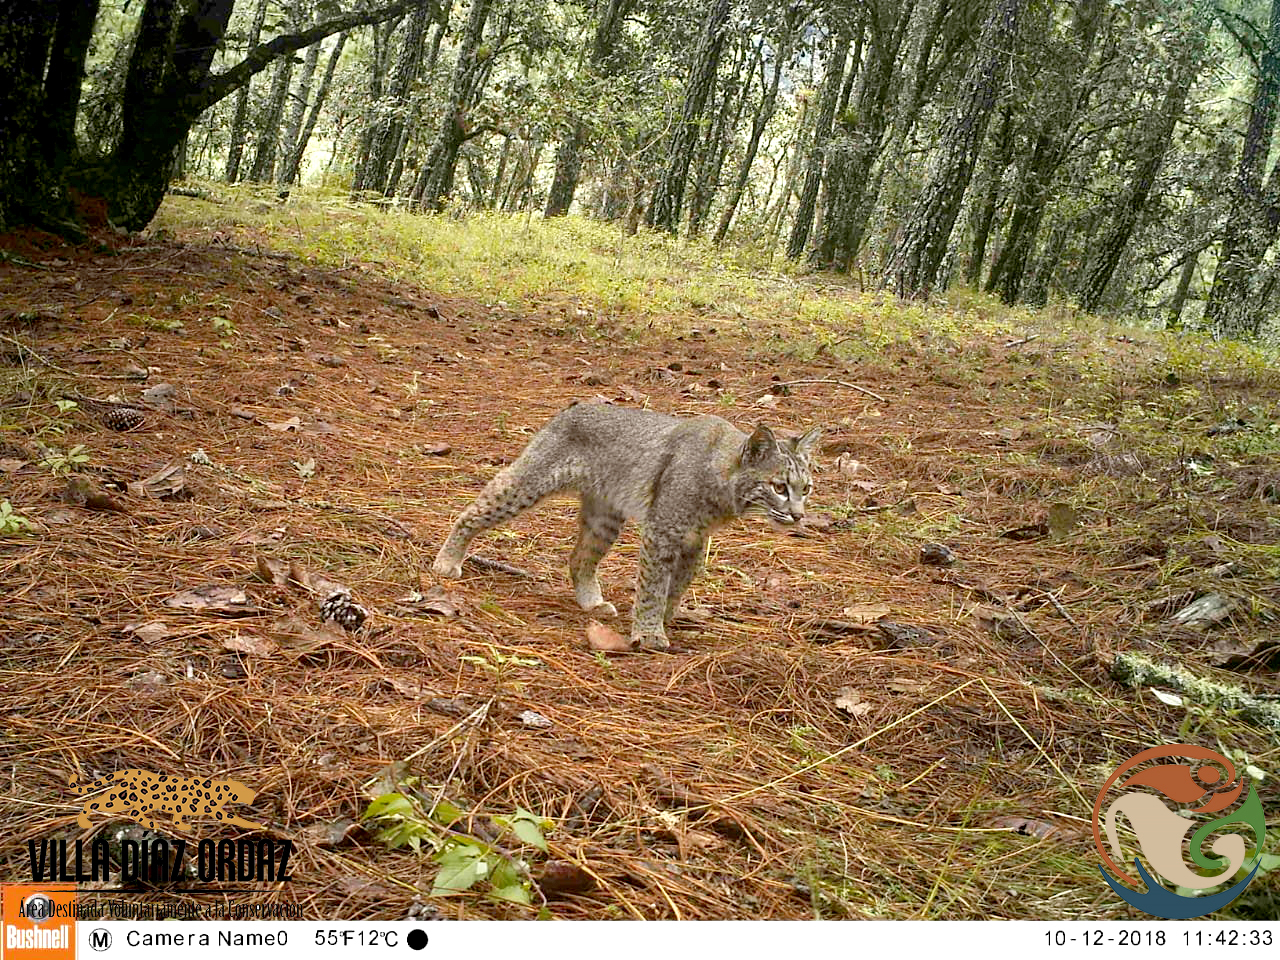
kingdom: Animalia
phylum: Chordata
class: Mammalia
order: Carnivora
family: Felidae
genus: Lynx
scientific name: Lynx rufus
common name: Bobcat
